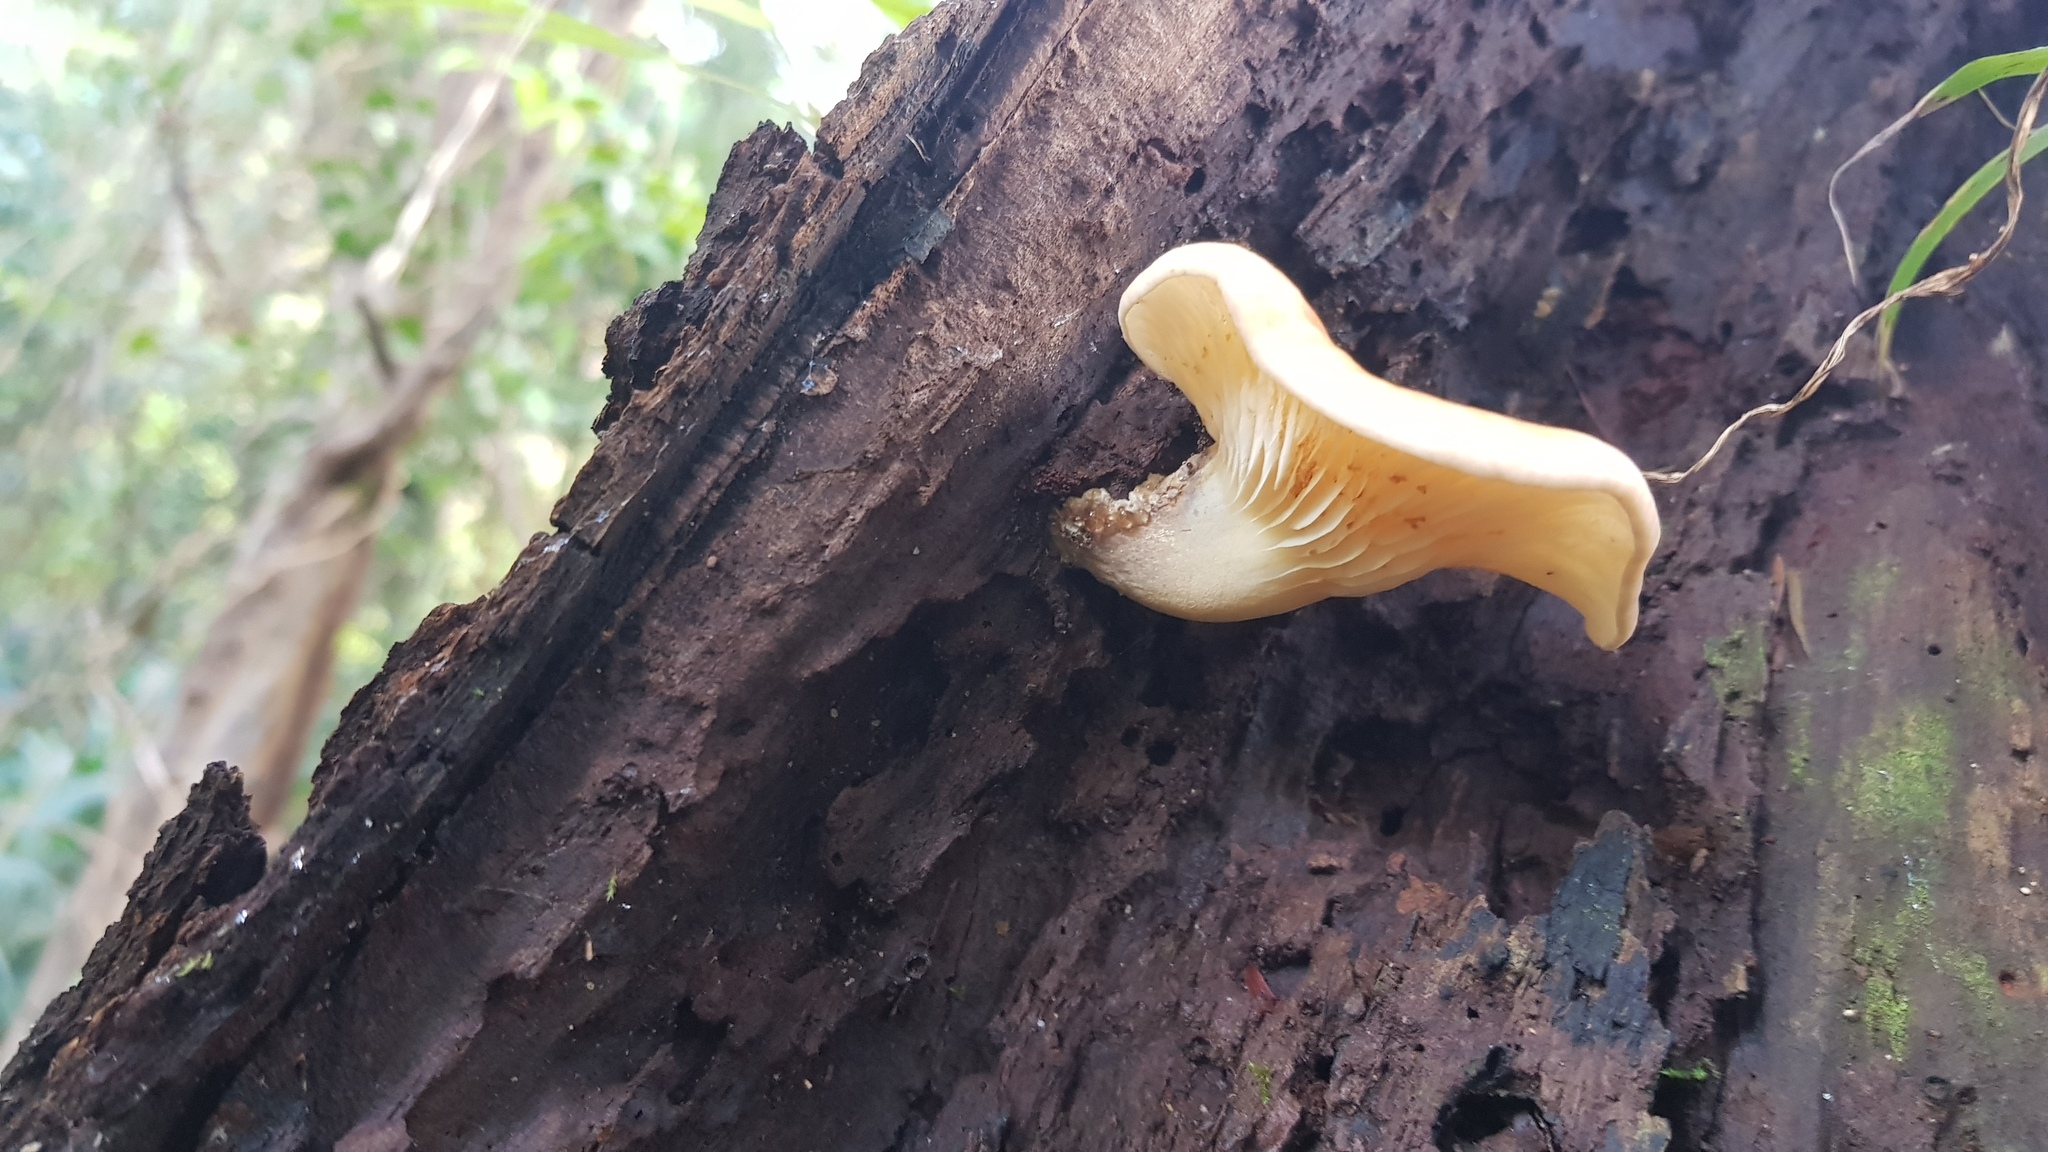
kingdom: Fungi
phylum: Basidiomycota
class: Agaricomycetes
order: Agaricales
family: Omphalotaceae
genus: Omphalotus
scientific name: Omphalotus nidiformis
